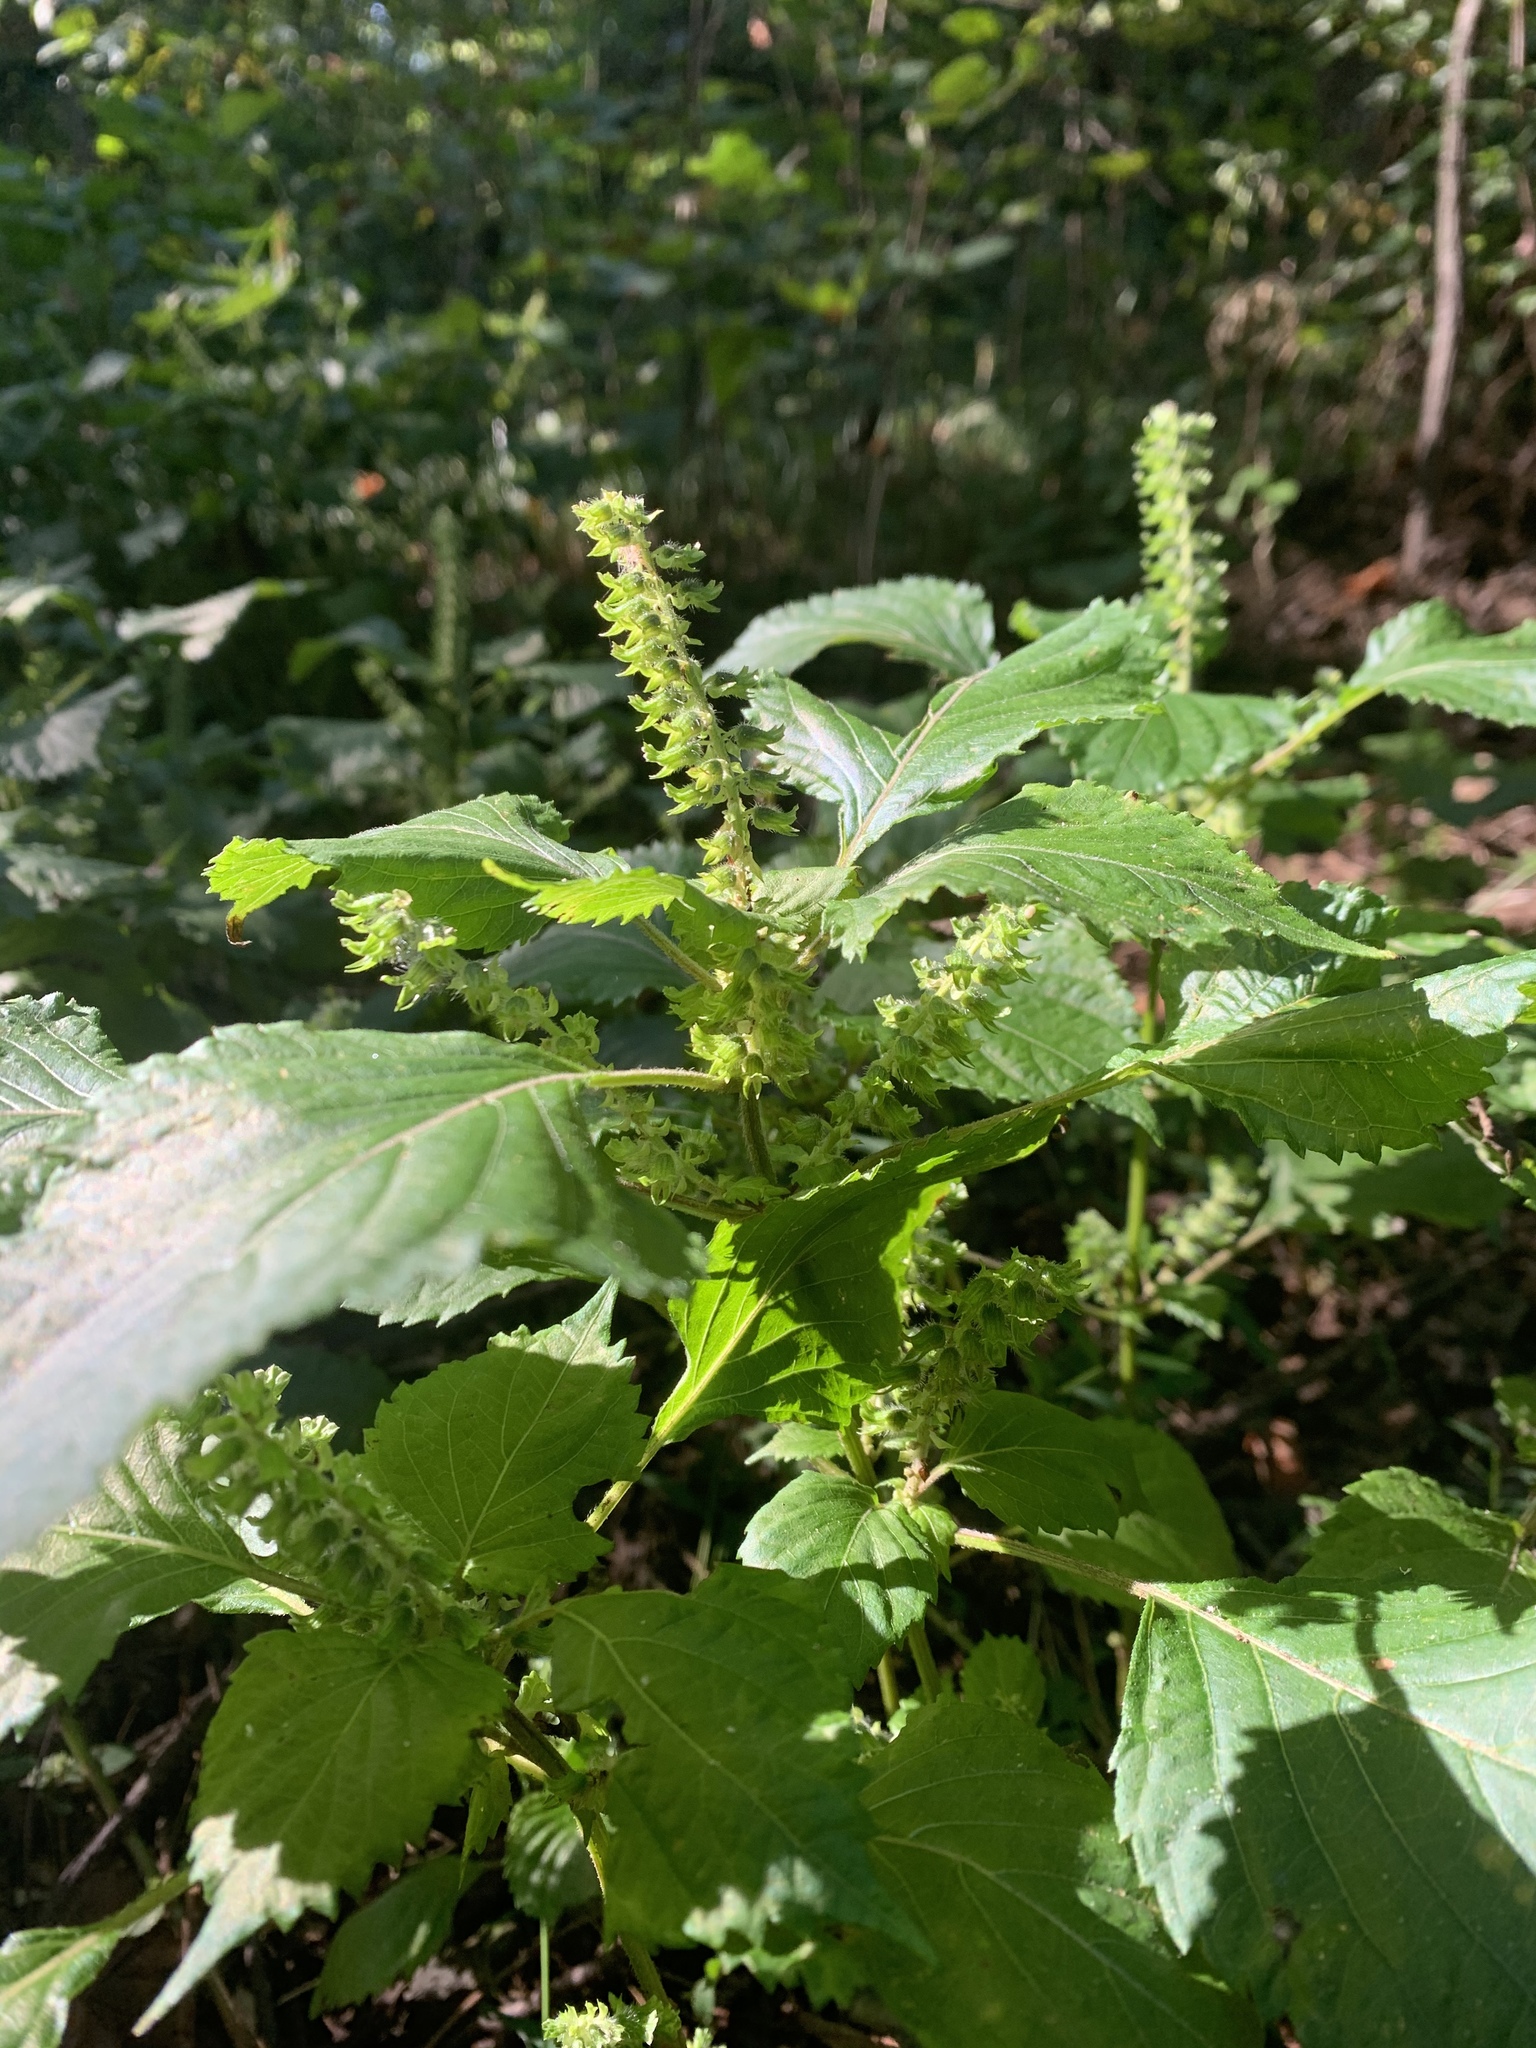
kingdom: Plantae
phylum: Tracheophyta
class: Magnoliopsida
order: Lamiales
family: Lamiaceae
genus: Perilla
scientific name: Perilla frutescens
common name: Perilla
